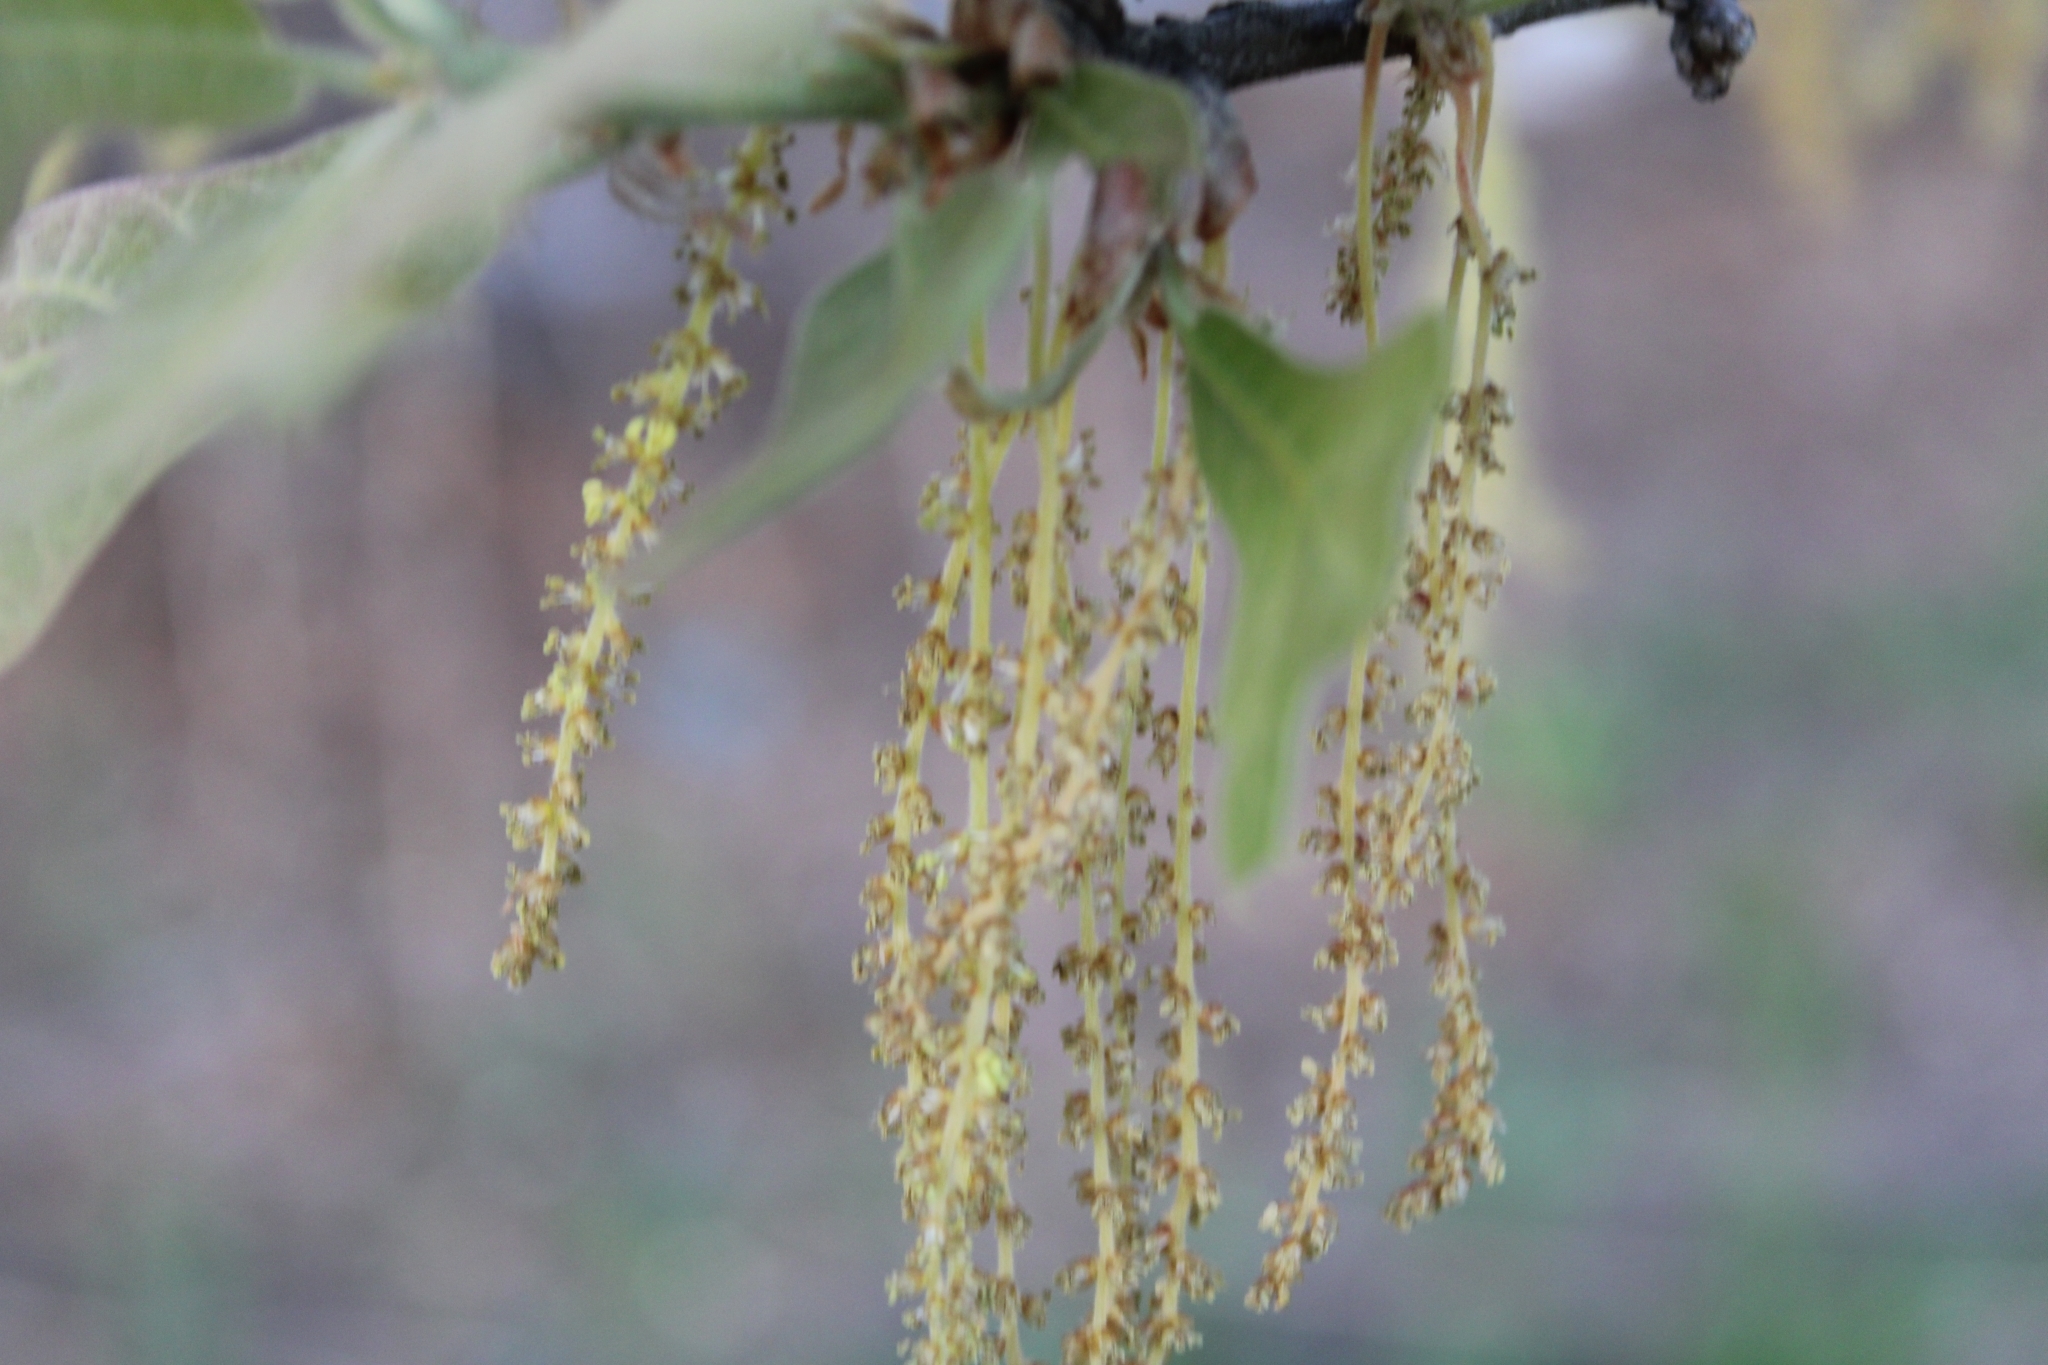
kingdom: Plantae
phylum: Tracheophyta
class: Magnoliopsida
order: Fagales
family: Fagaceae
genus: Quercus
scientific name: Quercus marilandica
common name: Blackjack oak
